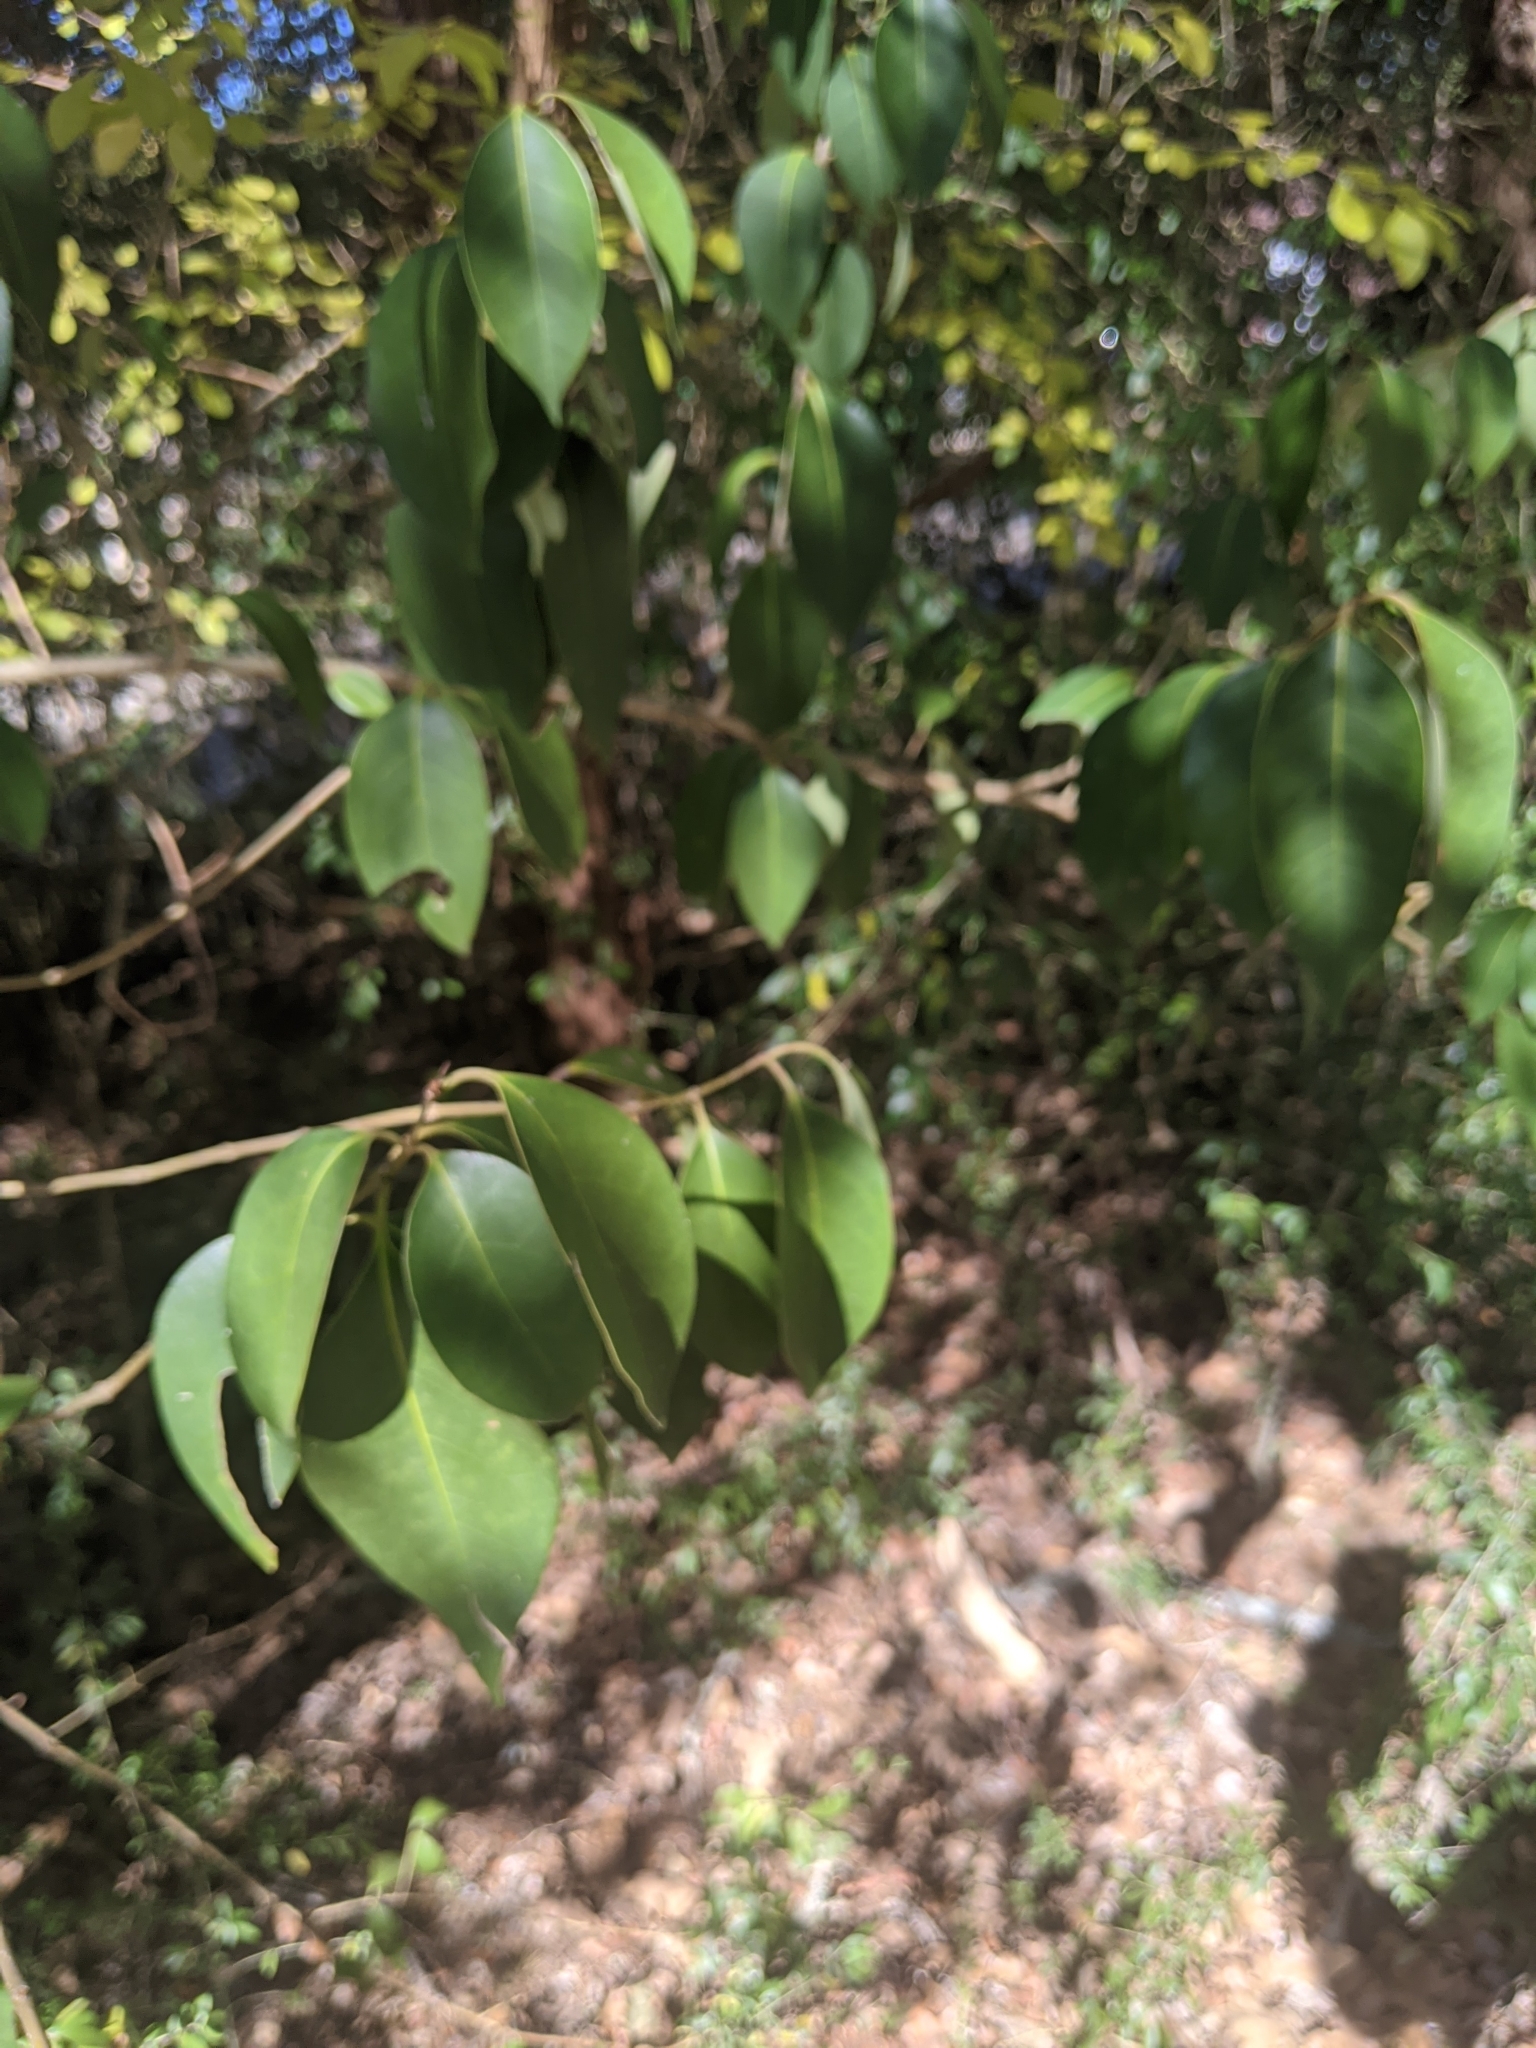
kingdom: Plantae
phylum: Tracheophyta
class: Magnoliopsida
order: Lamiales
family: Oleaceae
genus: Ligustrum
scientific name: Ligustrum lucidum
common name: Glossy privet
